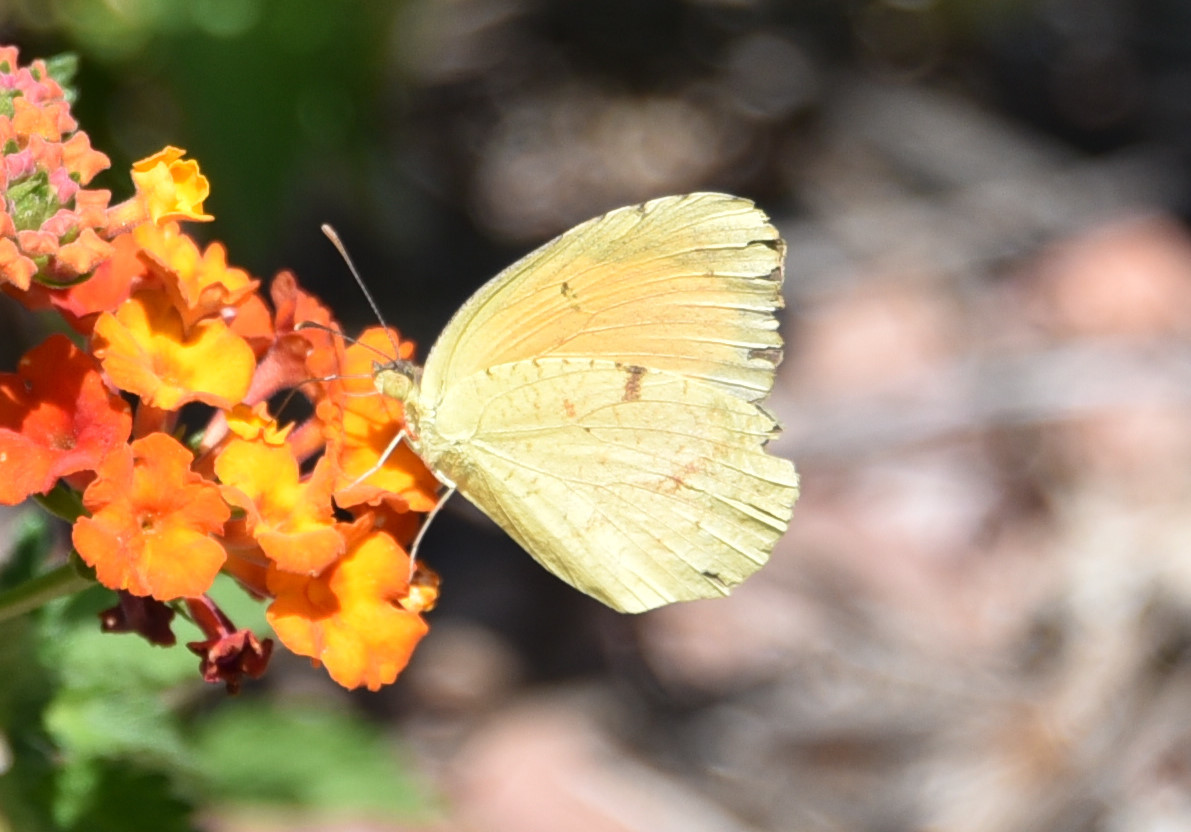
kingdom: Animalia
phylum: Arthropoda
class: Insecta
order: Lepidoptera
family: Pieridae
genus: Abaeis
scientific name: Abaeis nicippe
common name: Sleepy orange
